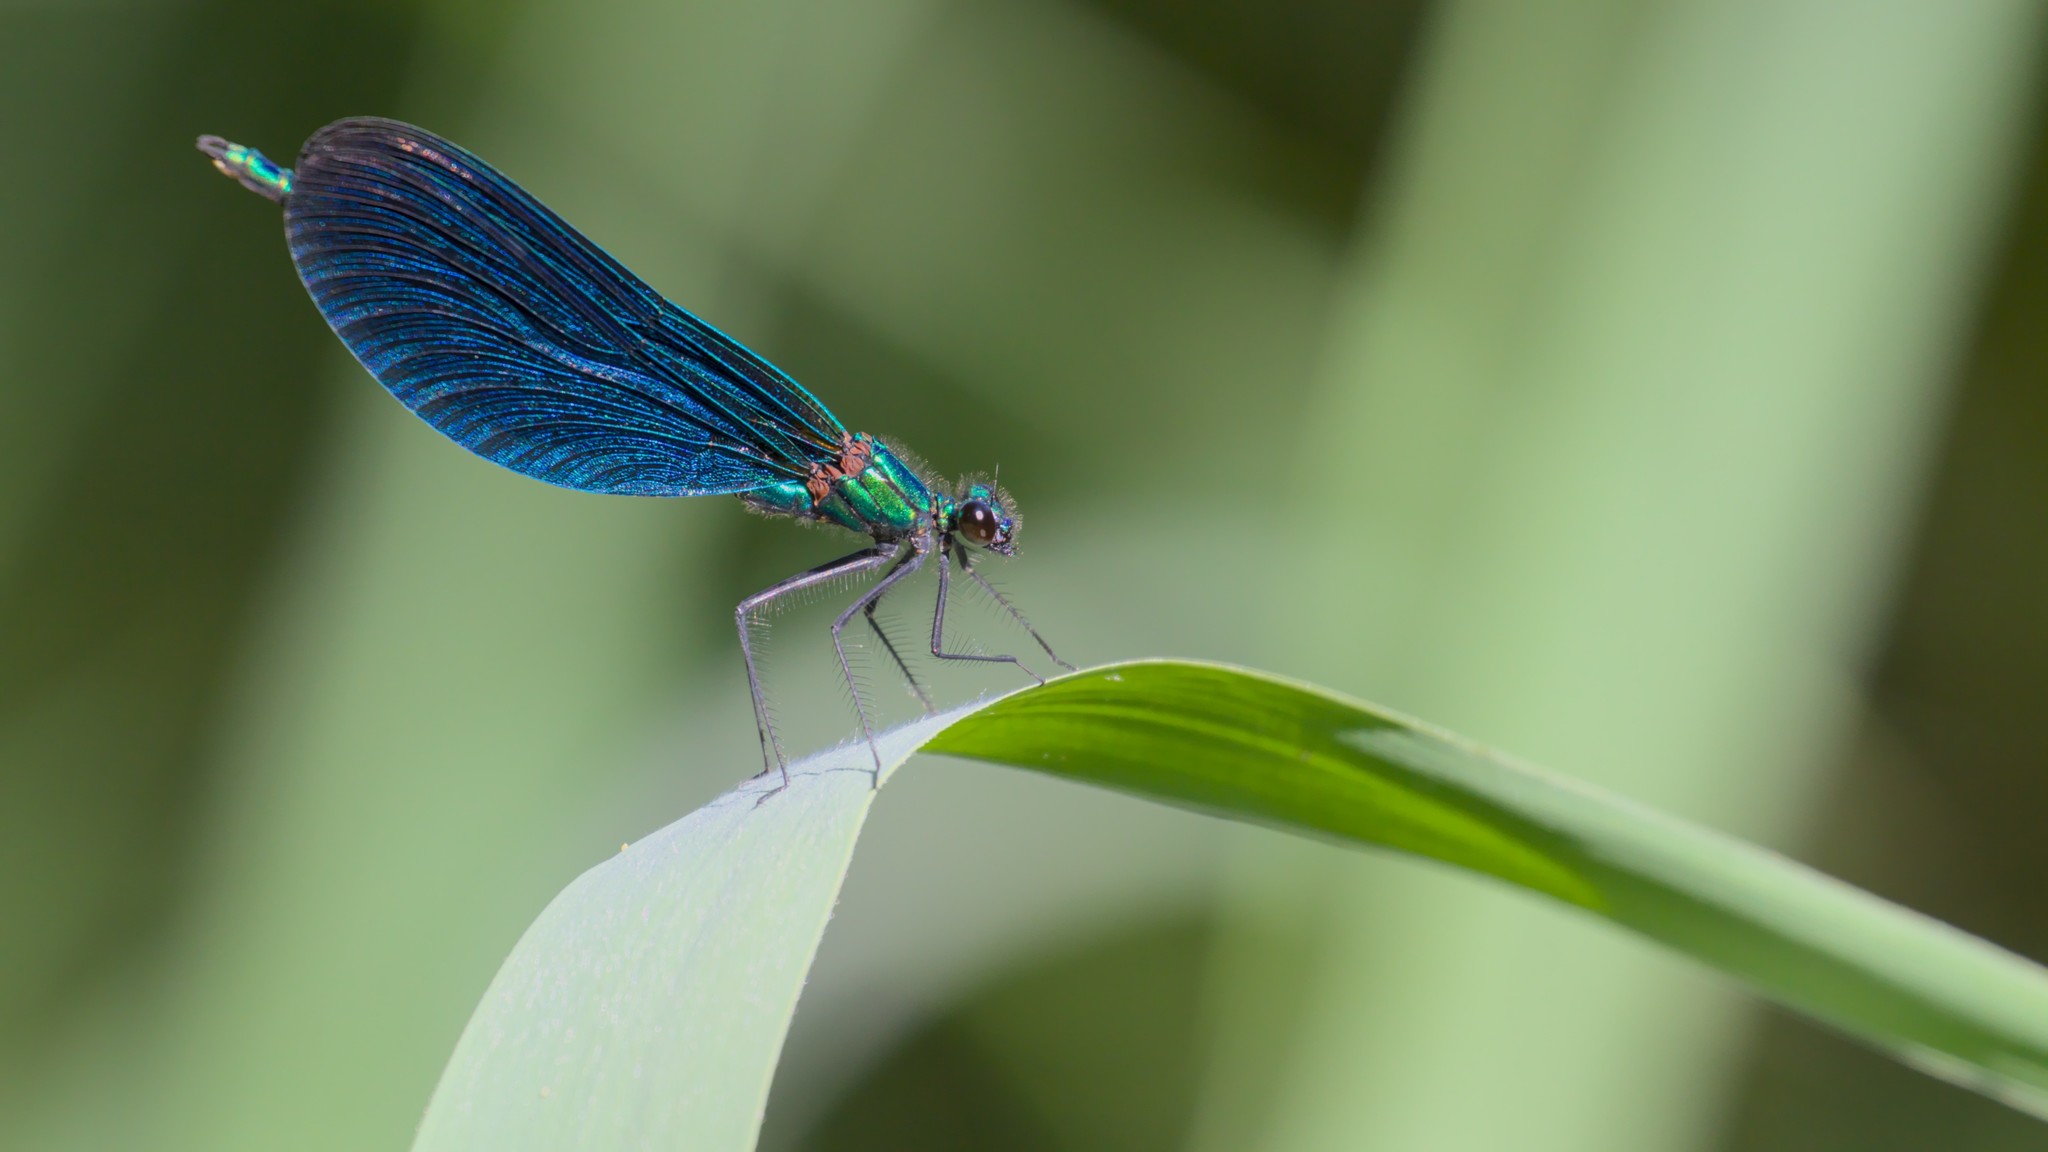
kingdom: Animalia
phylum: Arthropoda
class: Insecta
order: Odonata
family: Calopterygidae
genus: Calopteryx
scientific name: Calopteryx virgo
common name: Beautiful demoiselle
